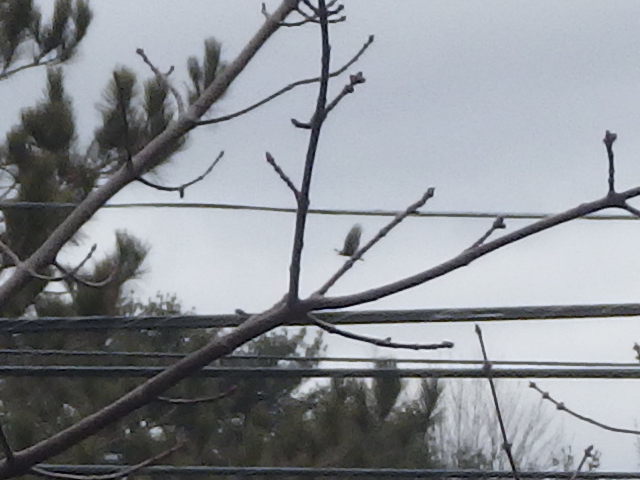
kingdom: Animalia
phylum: Chordata
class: Aves
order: Accipitriformes
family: Cathartidae
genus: Cathartes
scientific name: Cathartes aura
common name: Turkey vulture
